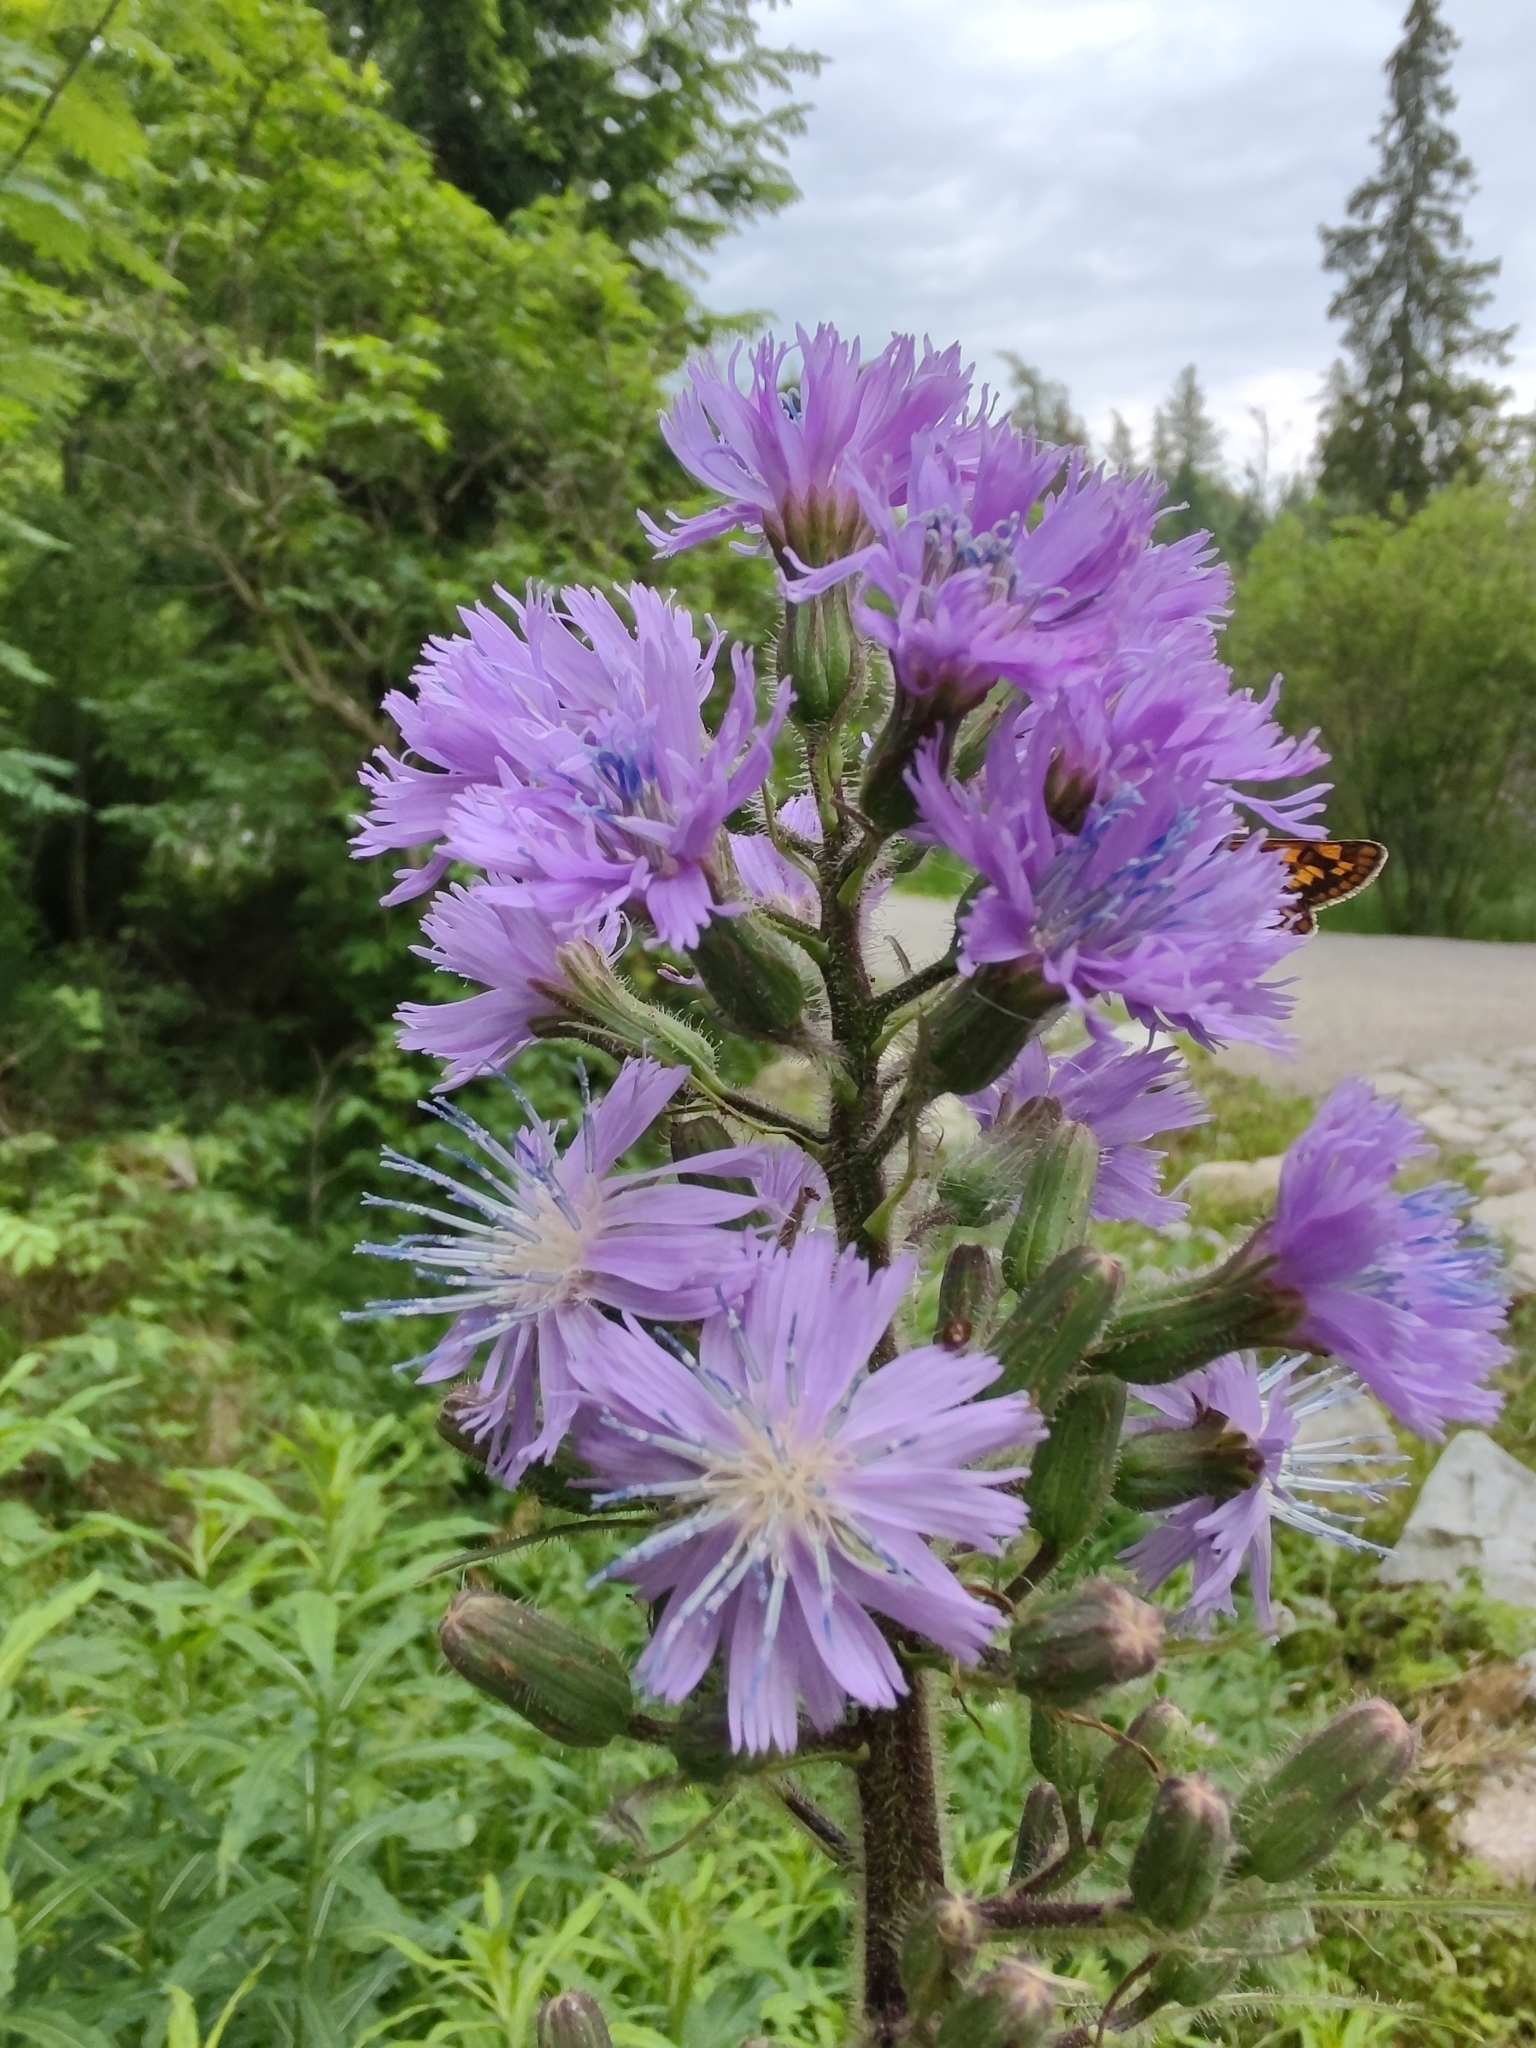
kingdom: Plantae
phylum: Tracheophyta
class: Magnoliopsida
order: Asterales
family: Asteraceae
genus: Cicerbita
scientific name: Cicerbita alpina
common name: Alpine blue-sow-thistle
